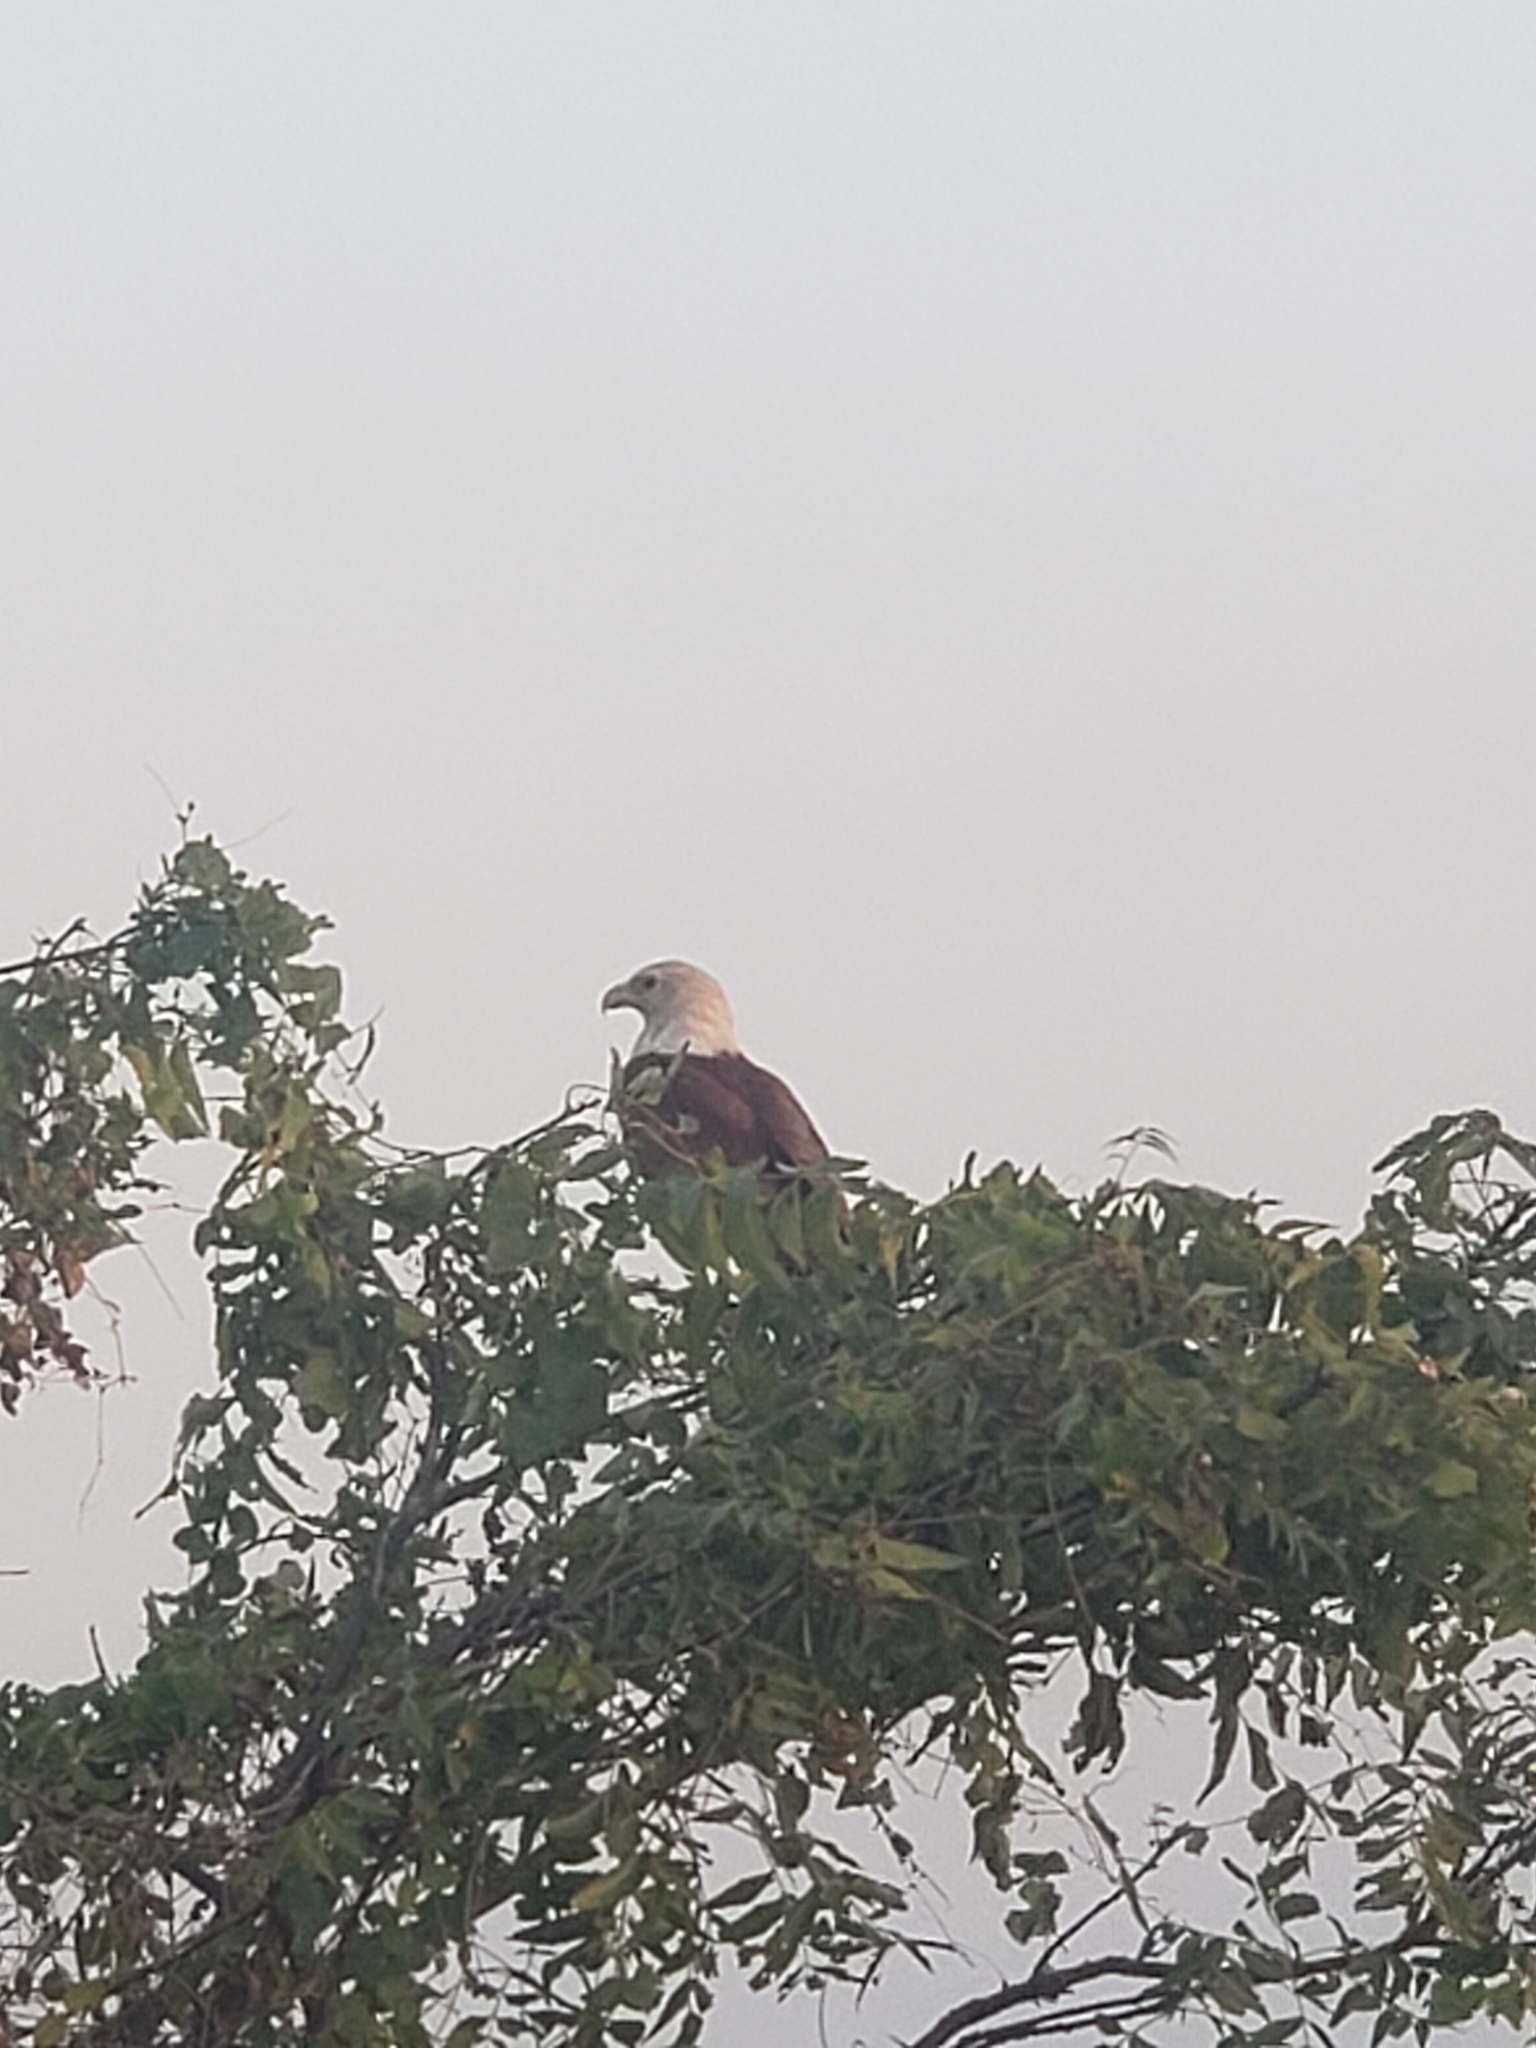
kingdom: Animalia
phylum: Chordata
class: Aves
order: Accipitriformes
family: Accipitridae
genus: Haliastur
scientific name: Haliastur indus
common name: Brahminy kite
